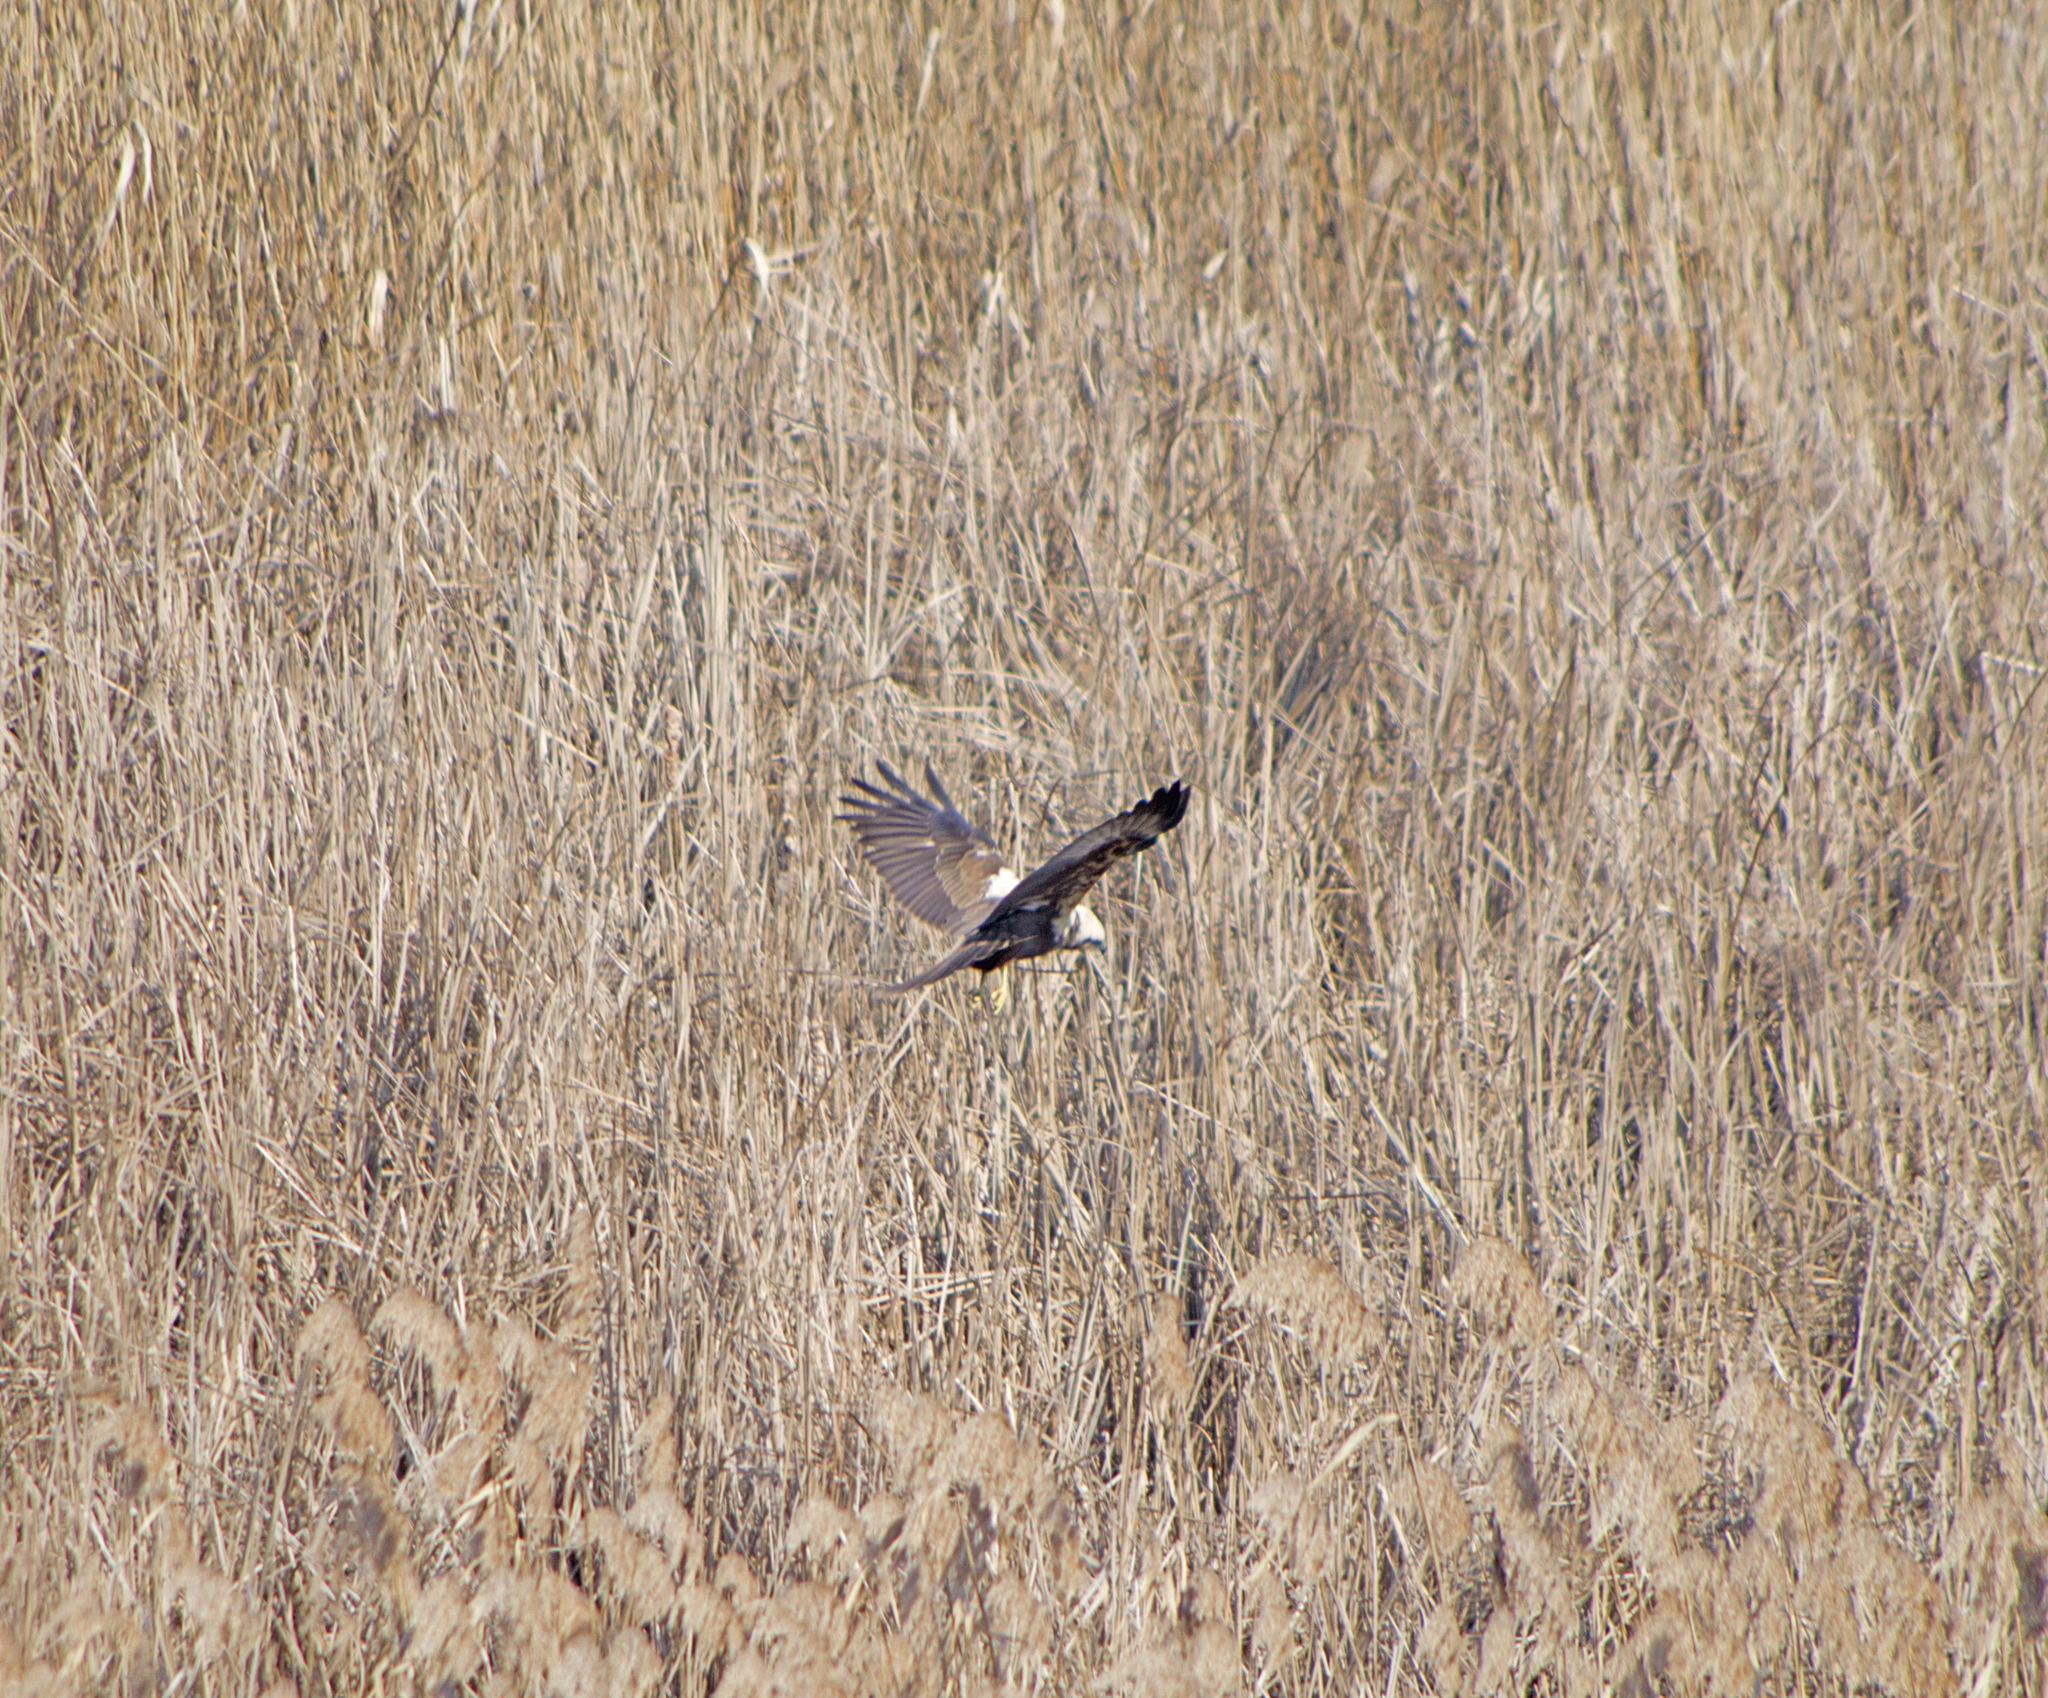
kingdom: Animalia
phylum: Chordata
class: Aves
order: Accipitriformes
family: Accipitridae
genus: Circus
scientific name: Circus aeruginosus
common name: Western marsh harrier
